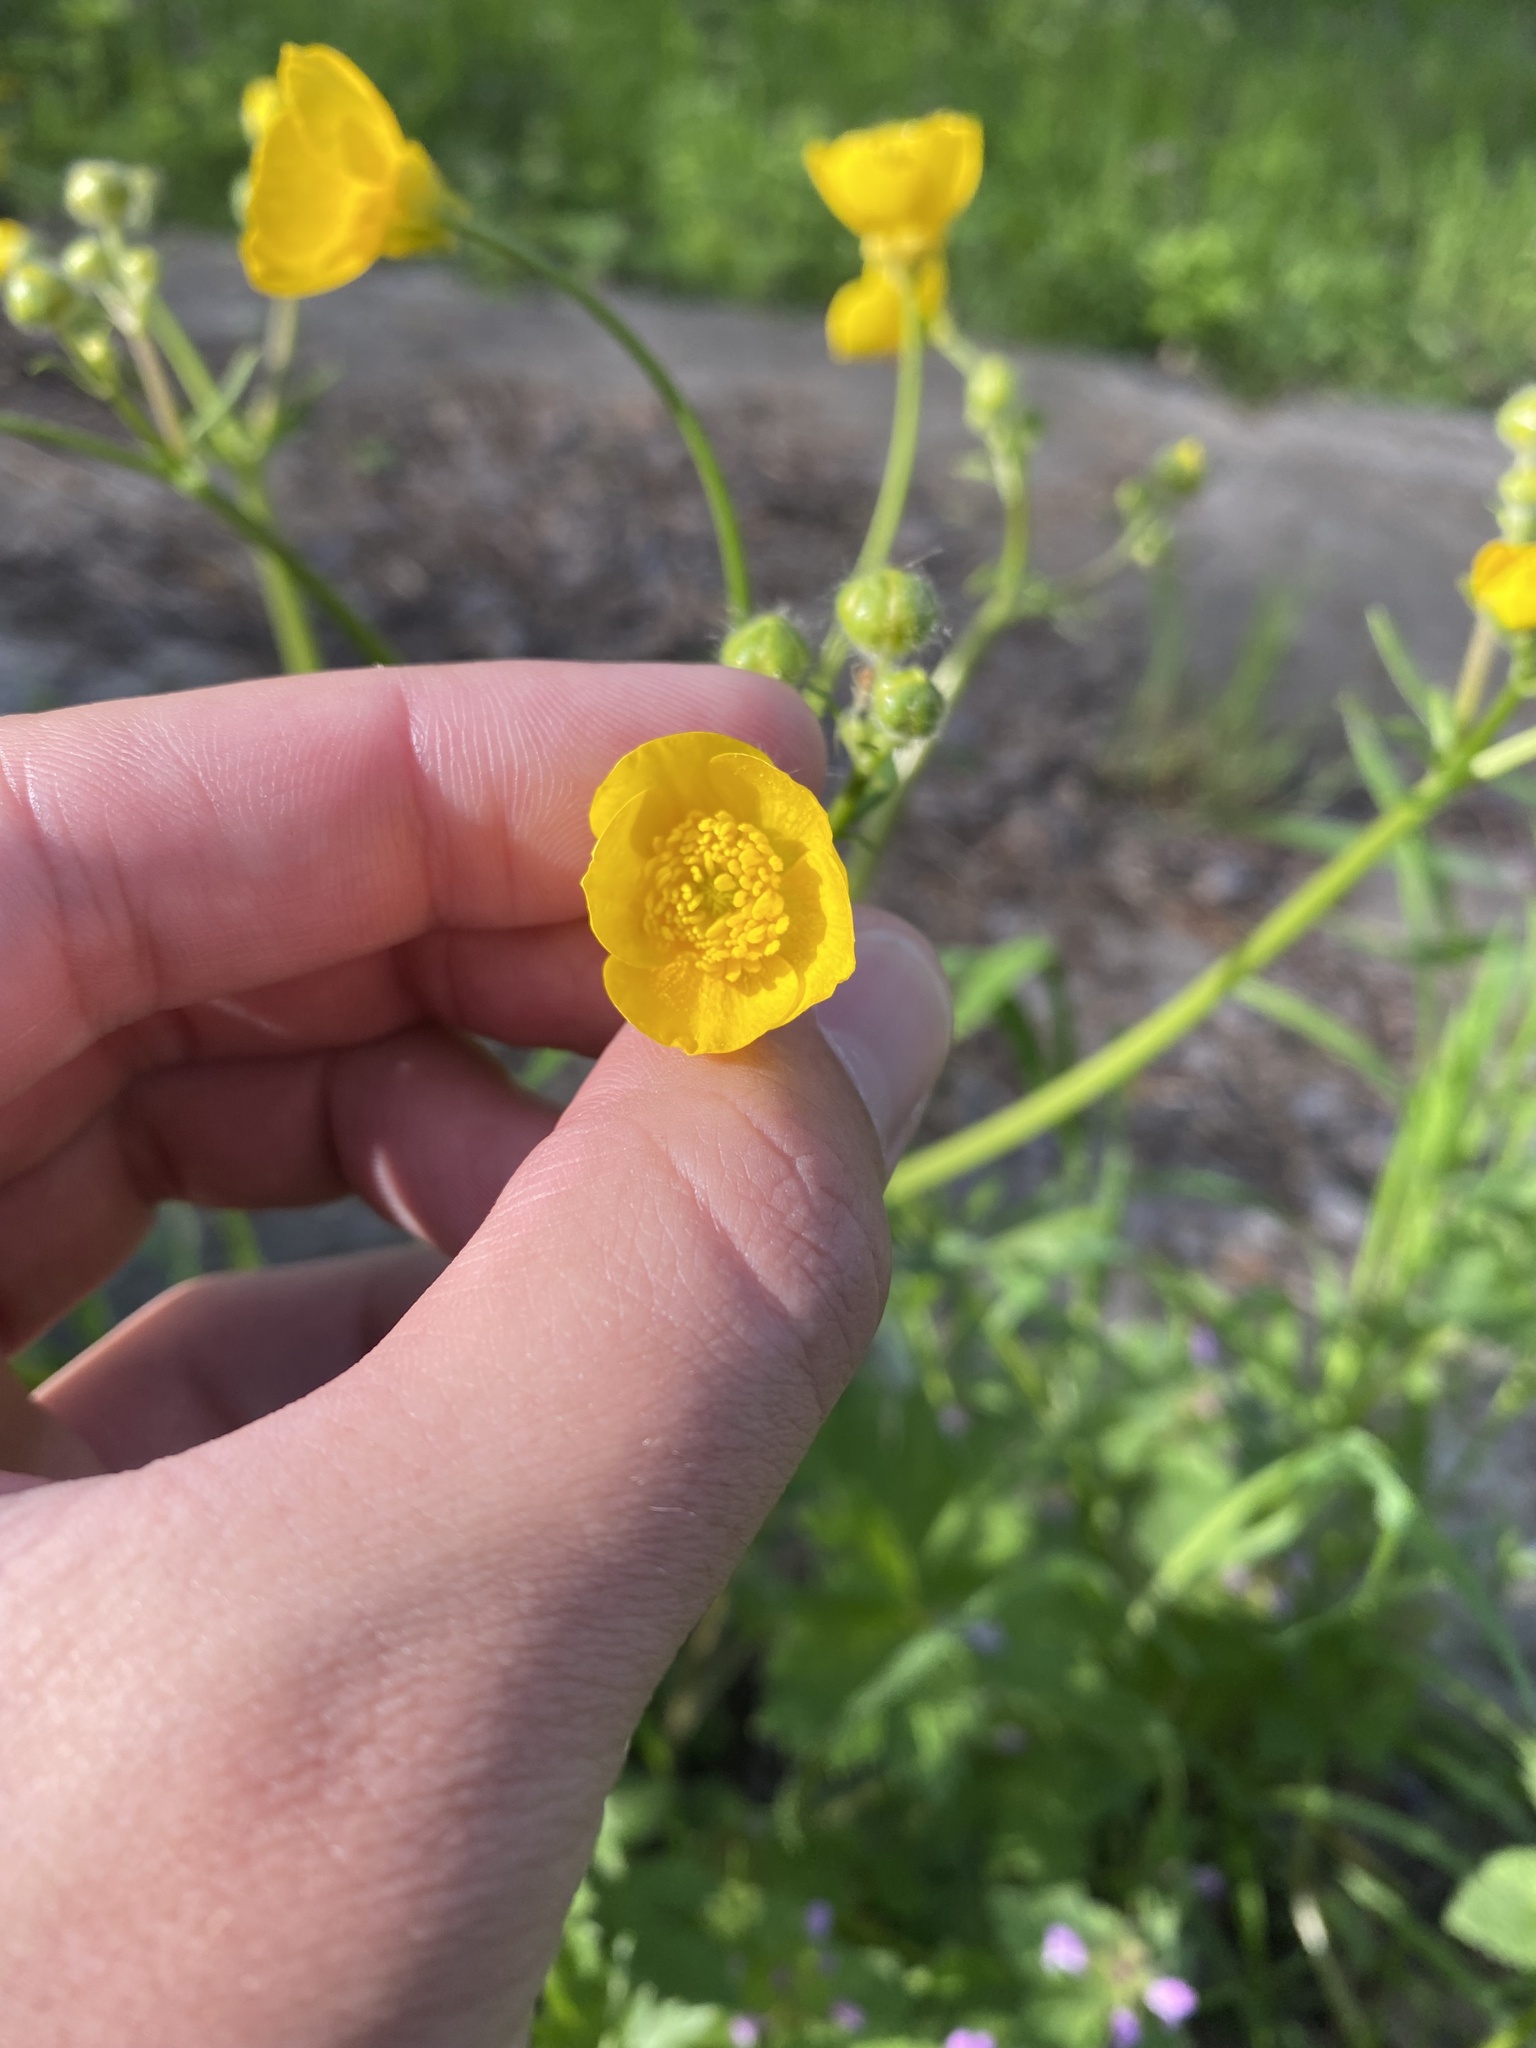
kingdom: Plantae
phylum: Tracheophyta
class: Magnoliopsida
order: Ranunculales
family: Ranunculaceae
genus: Ranunculus
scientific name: Ranunculus constantinopolitanus
